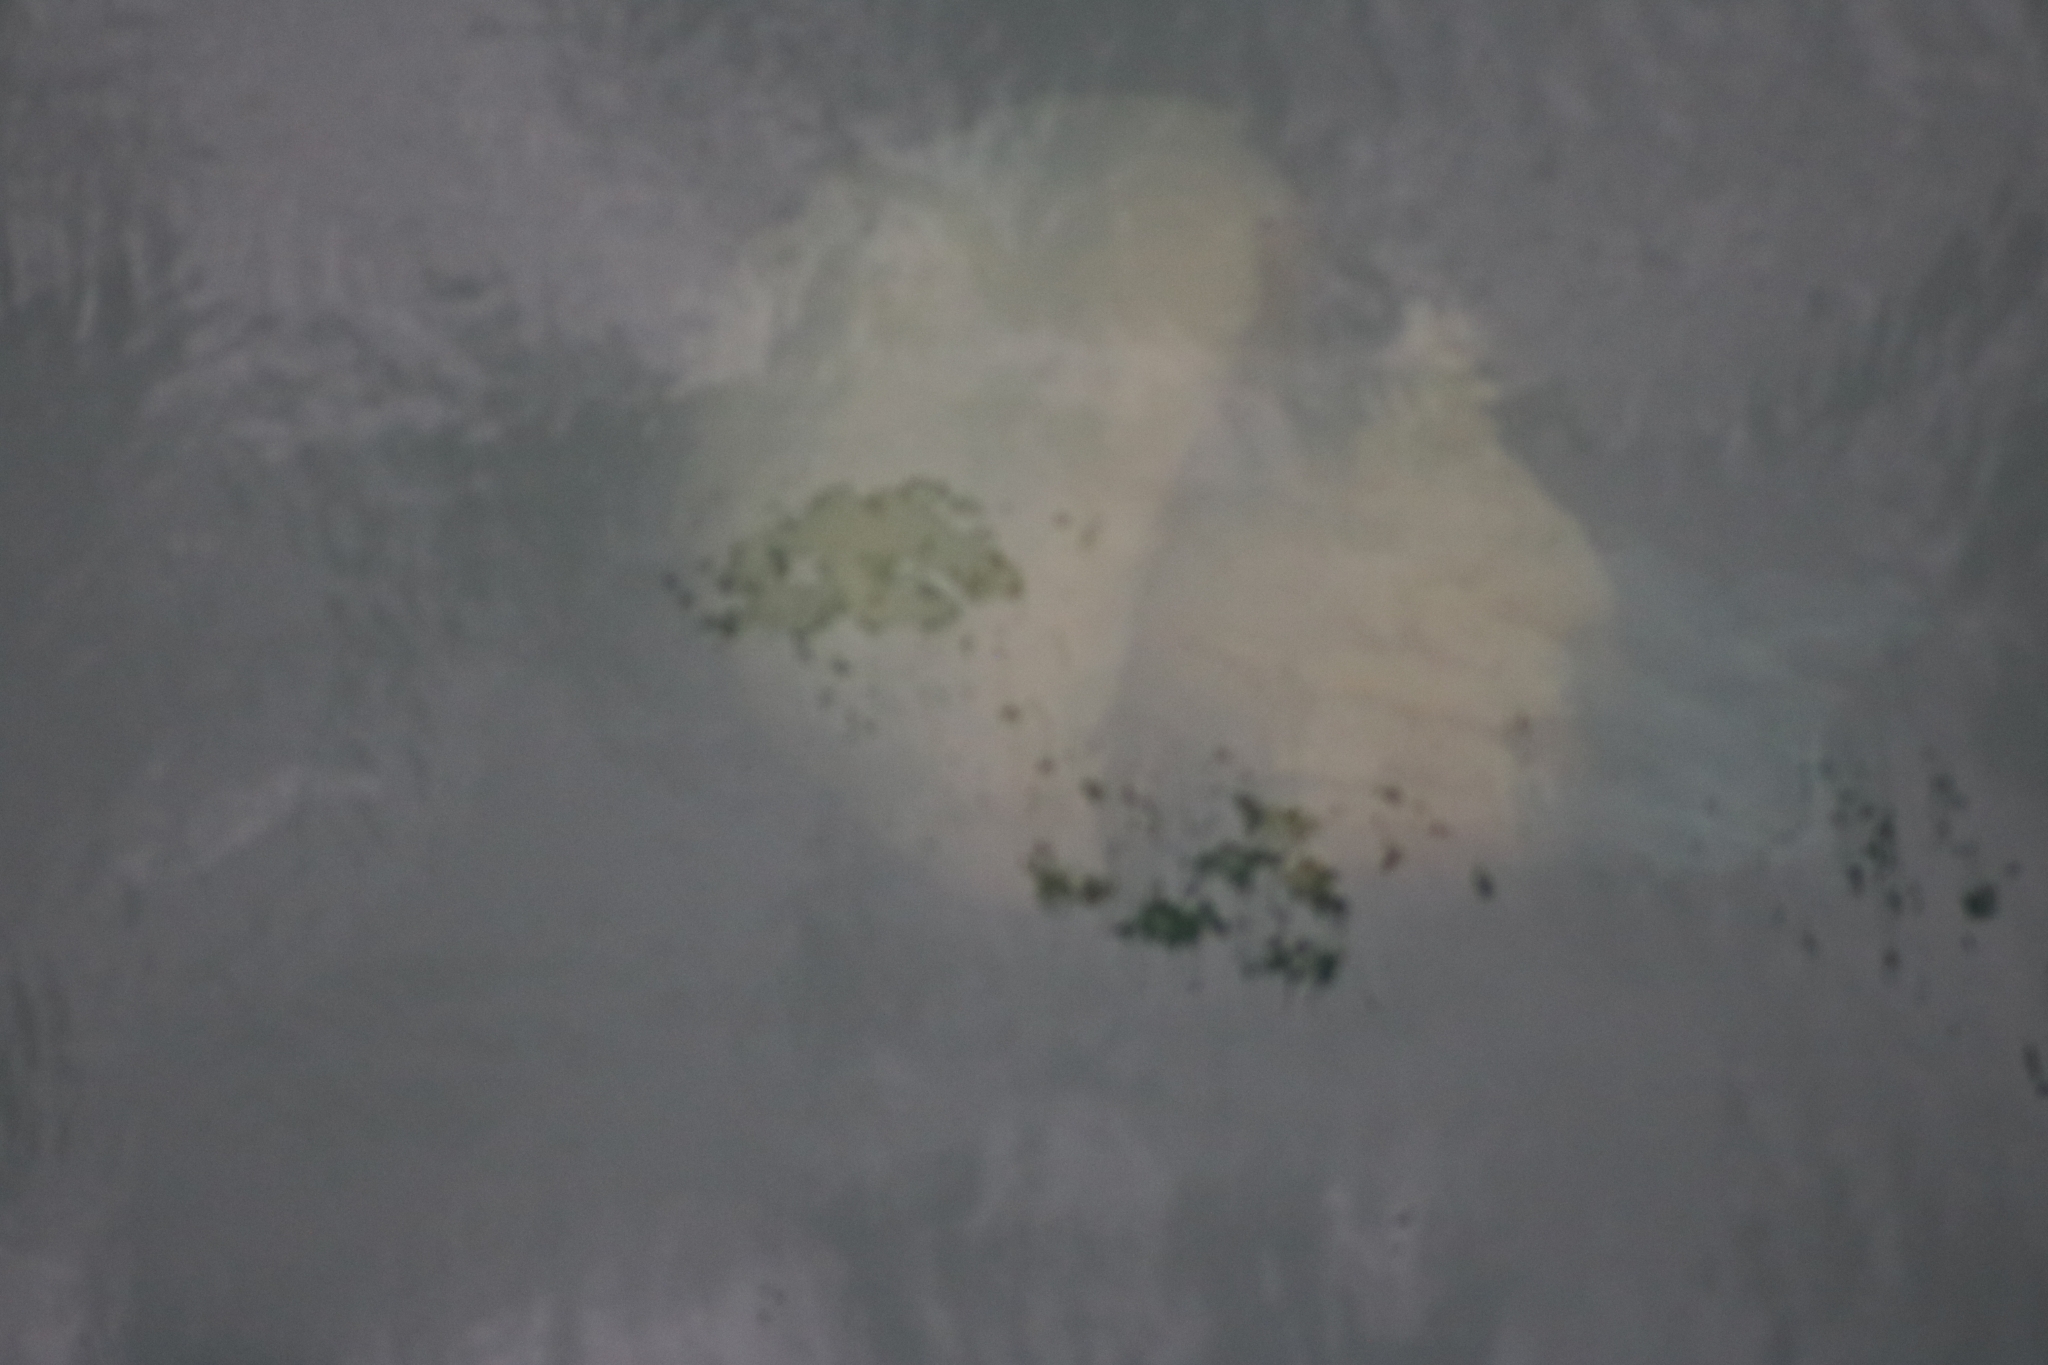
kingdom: Animalia
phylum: Cnidaria
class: Scyphozoa
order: Rhizostomeae
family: Rhizostomatidae
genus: Rhizostoma
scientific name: Rhizostoma octopus
